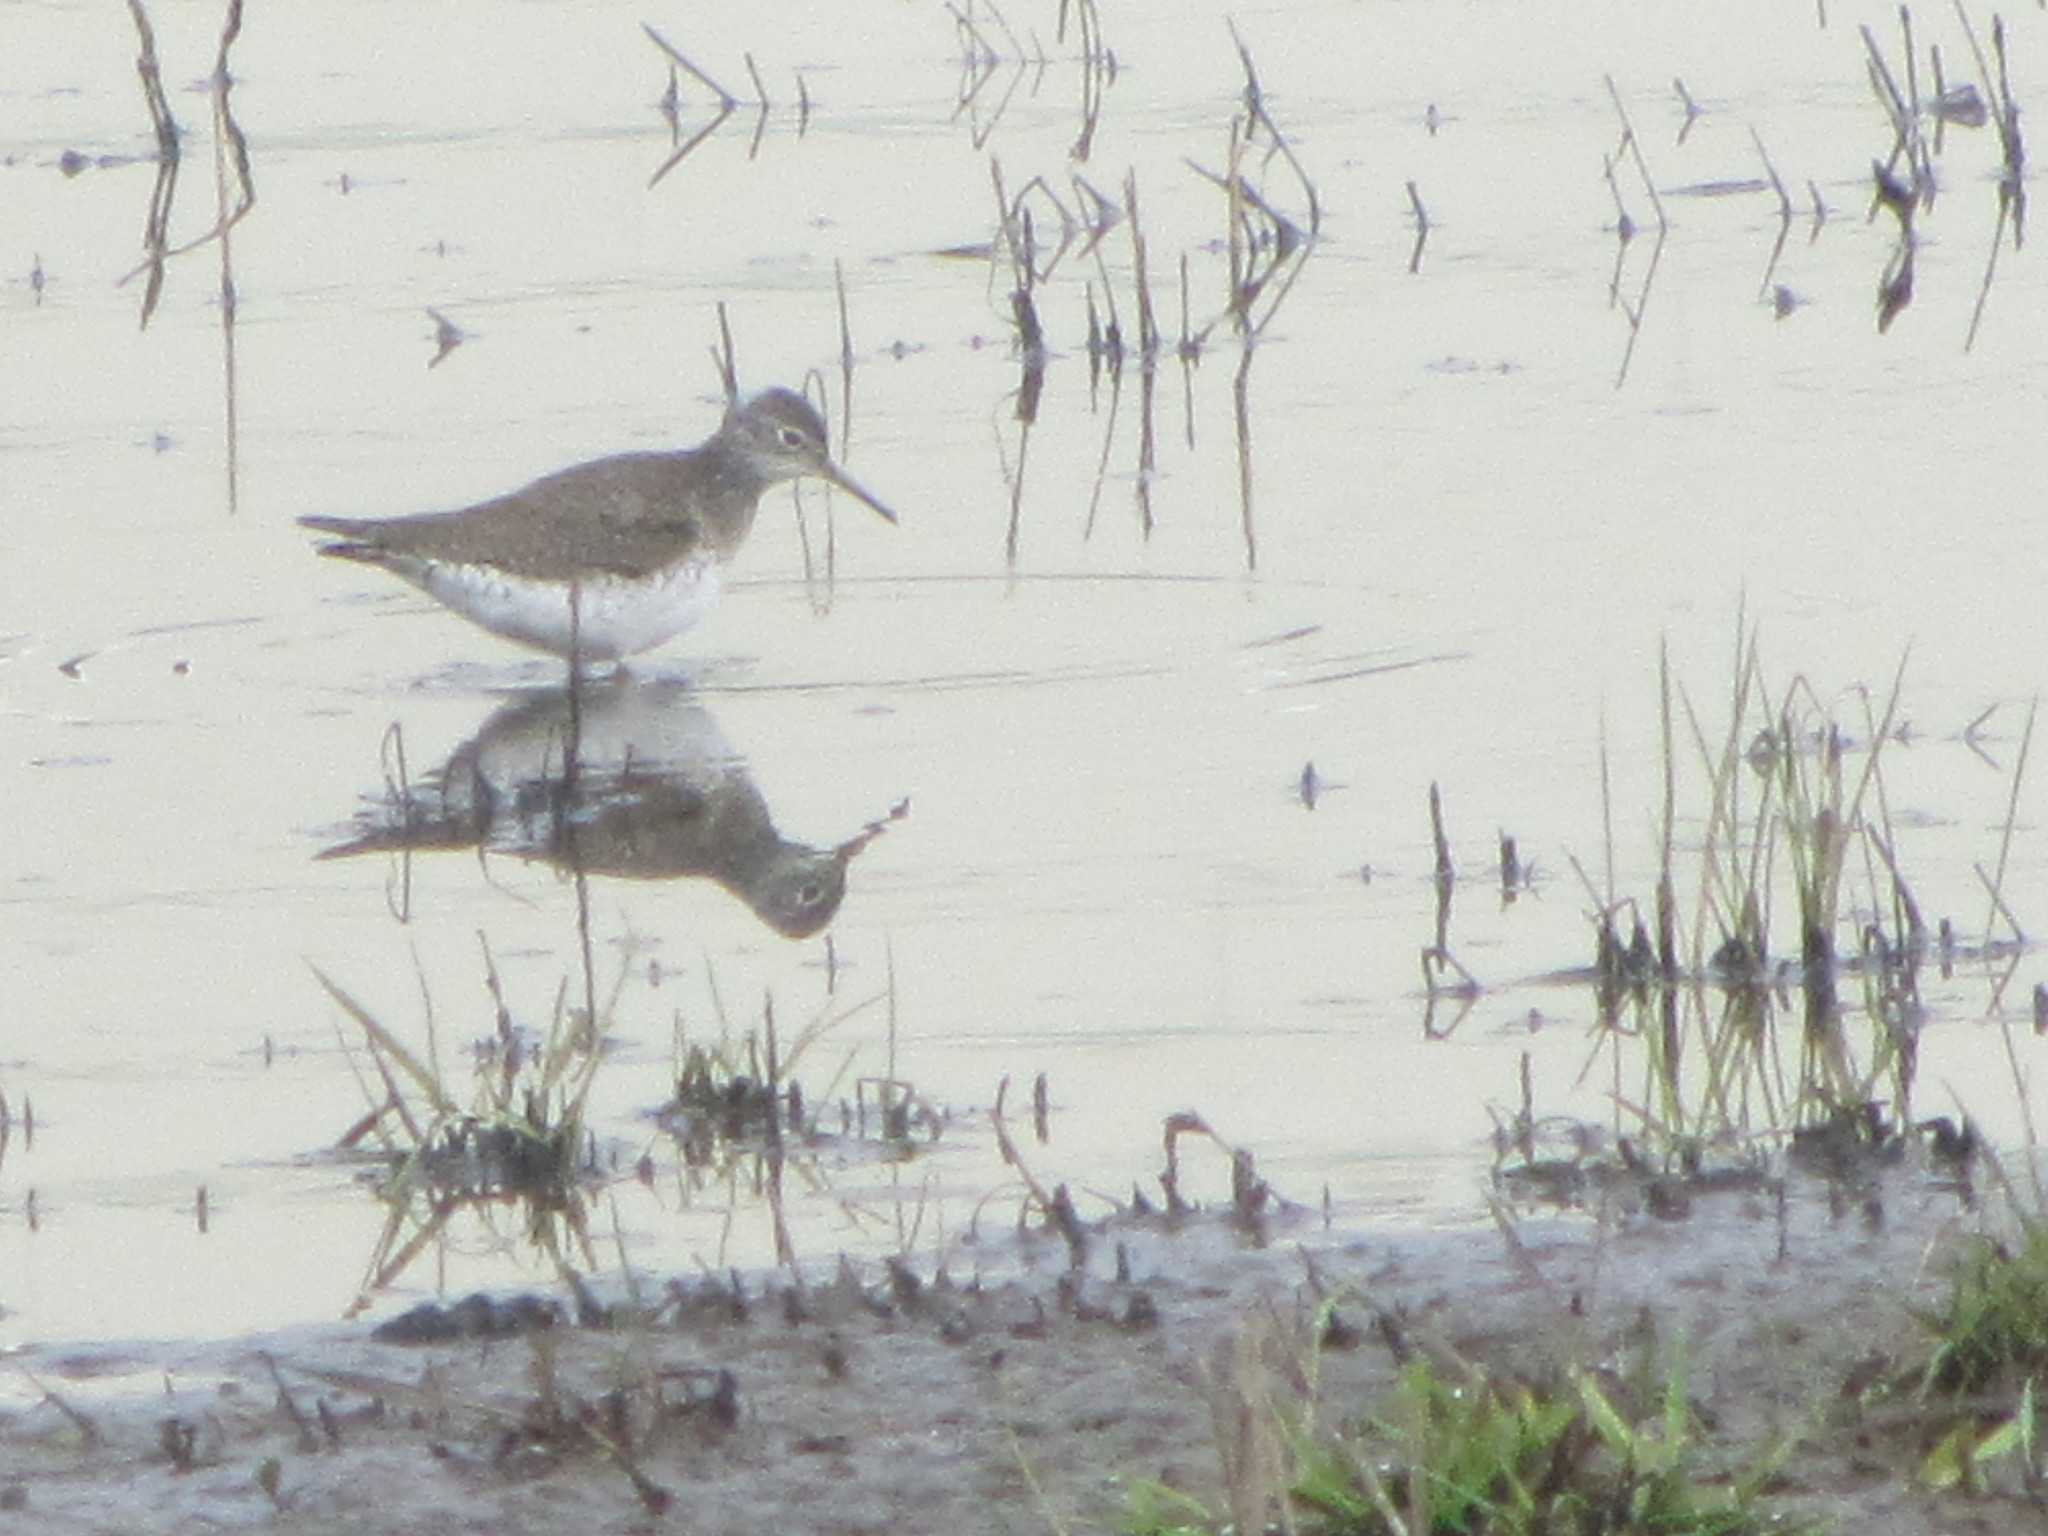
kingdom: Animalia
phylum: Chordata
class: Aves
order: Charadriiformes
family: Scolopacidae
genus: Tringa
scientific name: Tringa solitaria
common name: Solitary sandpiper
